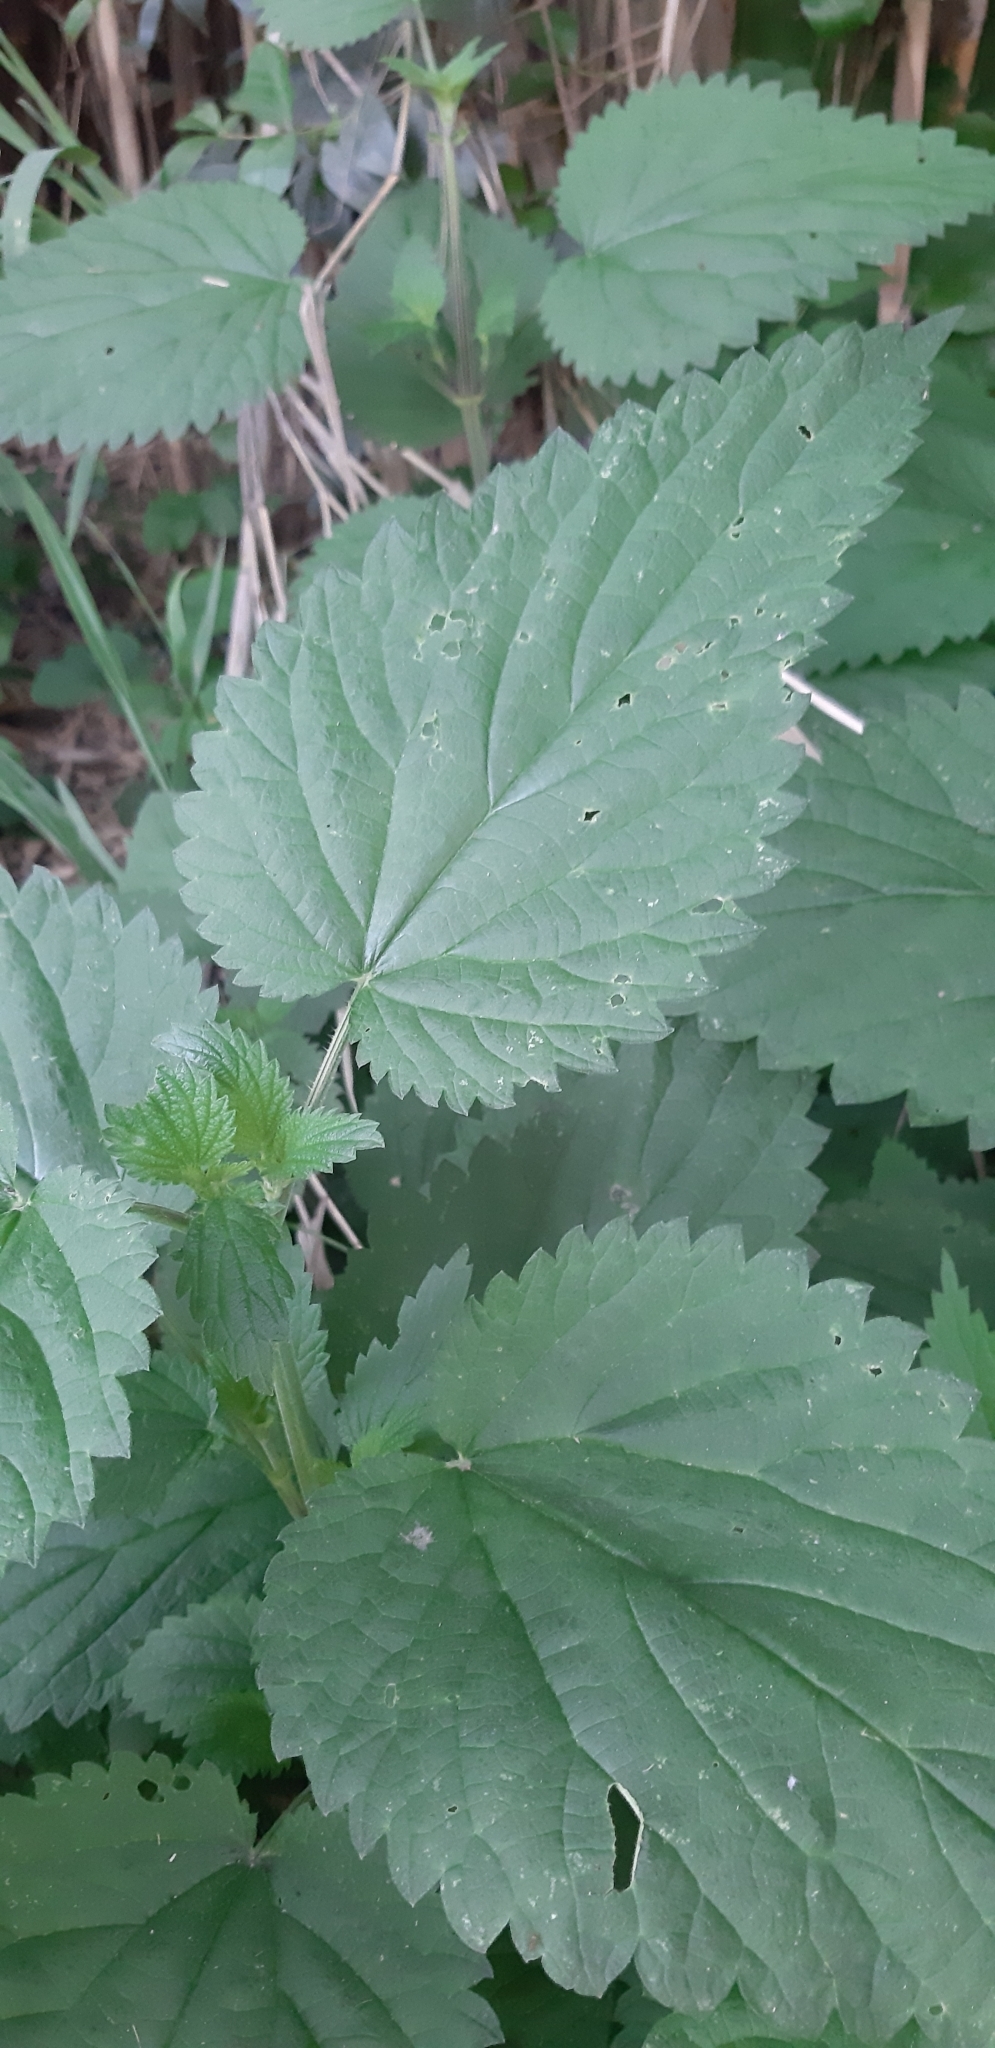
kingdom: Plantae
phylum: Tracheophyta
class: Magnoliopsida
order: Rosales
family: Urticaceae
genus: Urtica
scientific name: Urtica dioica
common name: Common nettle
